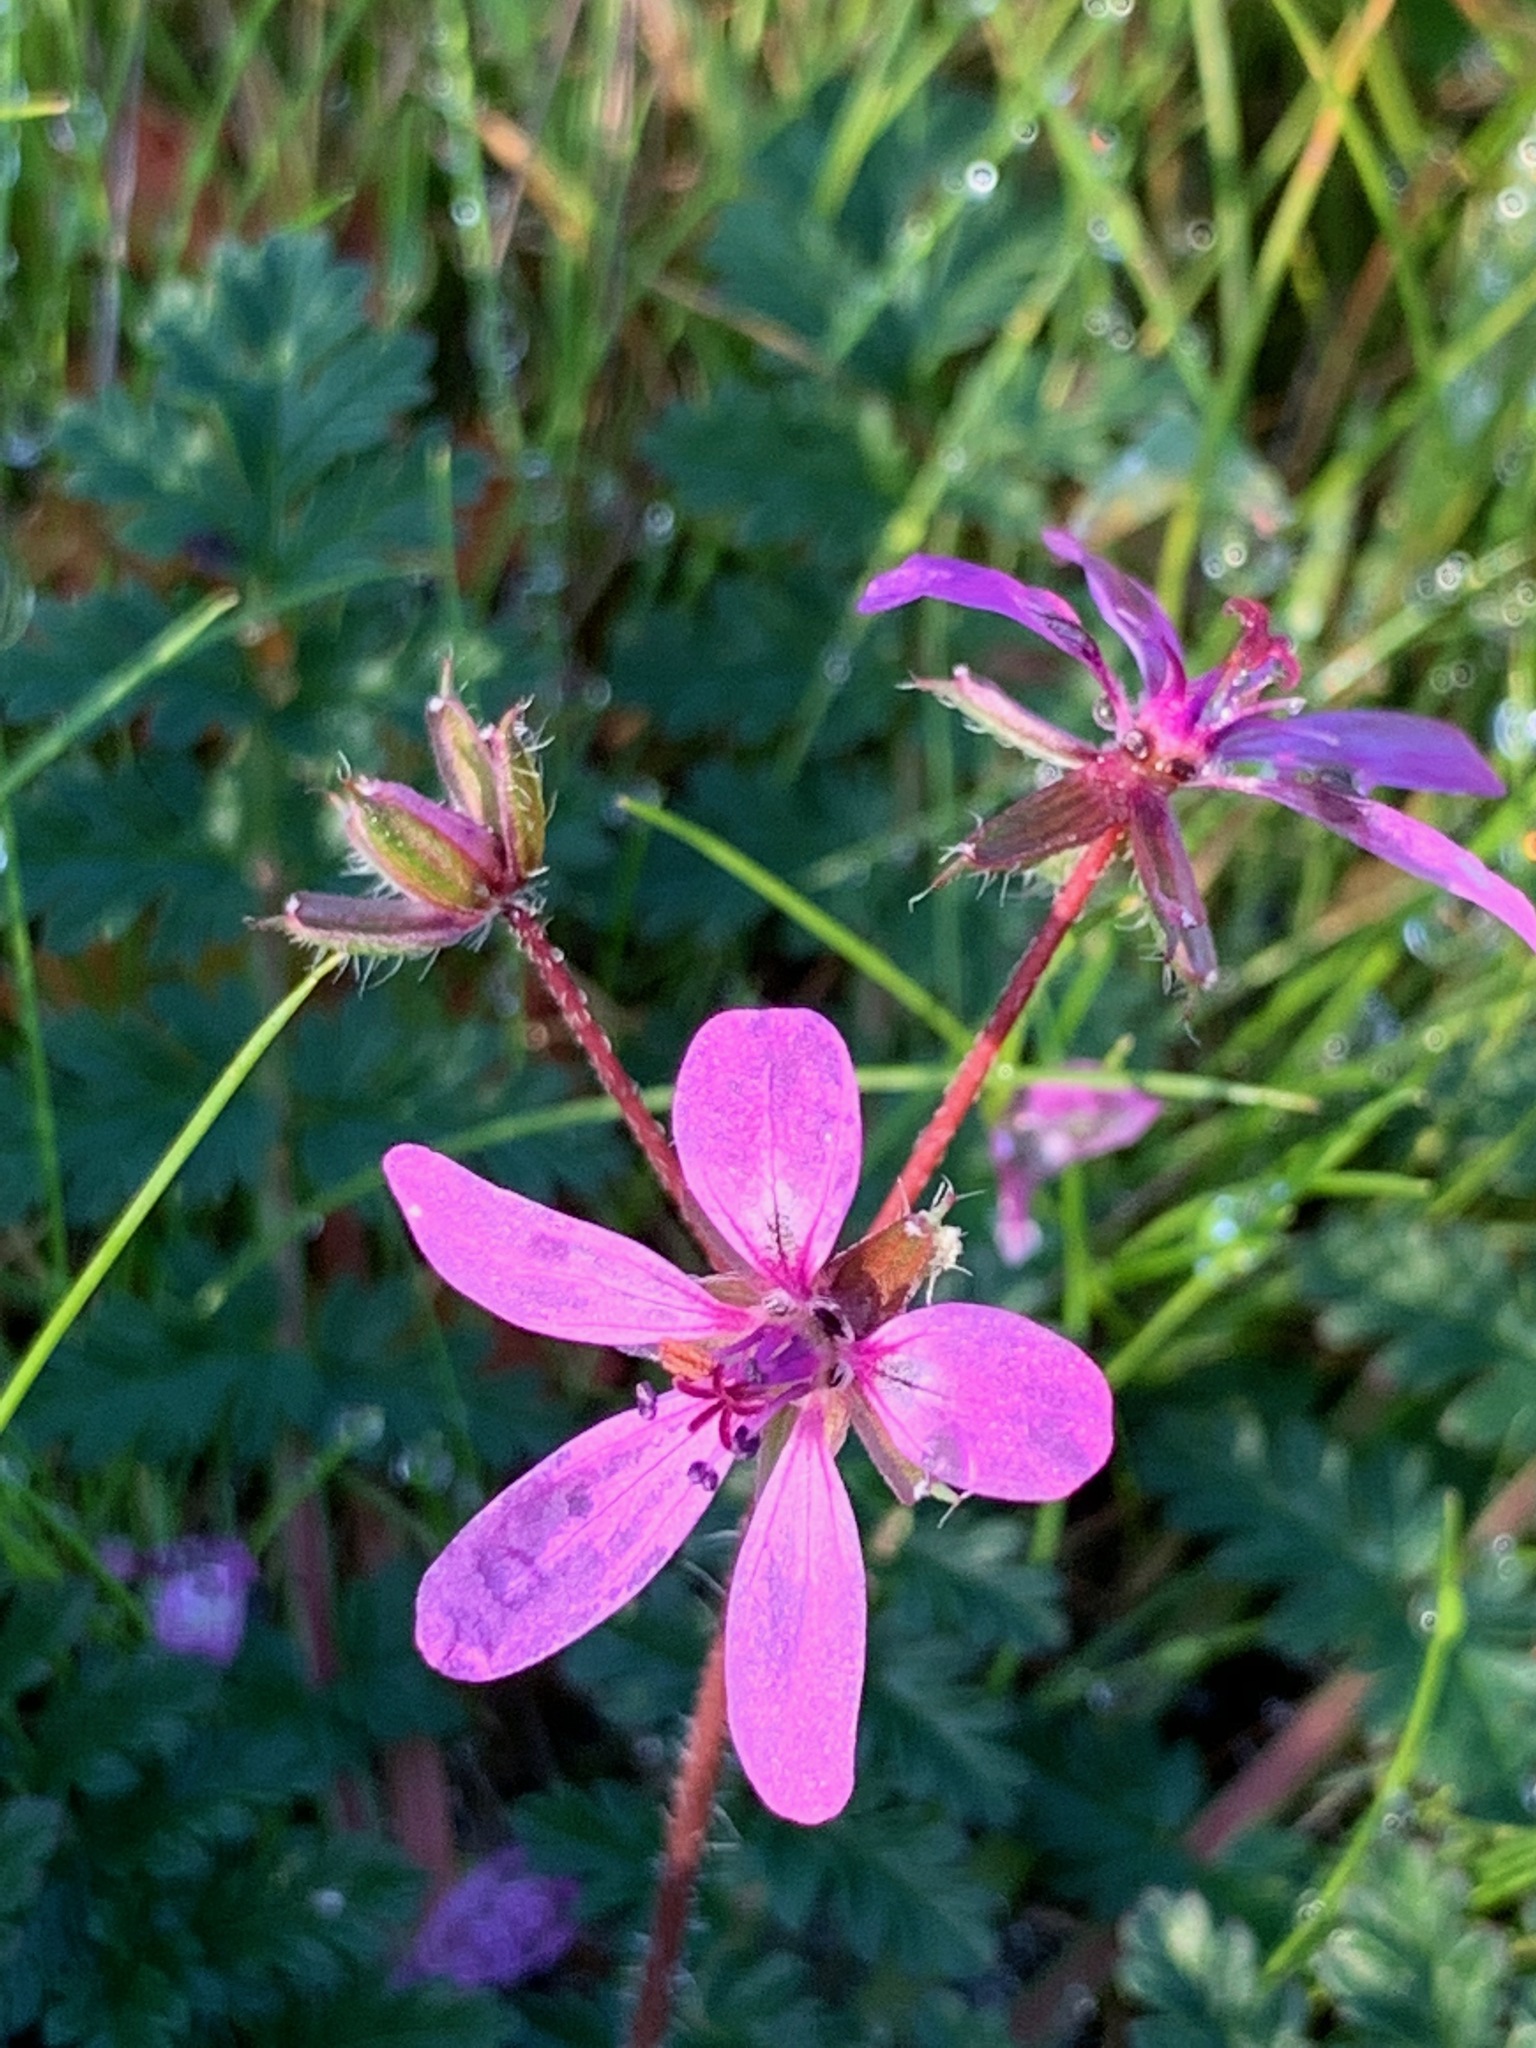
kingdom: Plantae
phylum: Tracheophyta
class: Magnoliopsida
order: Geraniales
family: Geraniaceae
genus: Erodium
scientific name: Erodium cicutarium
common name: Common stork's-bill
